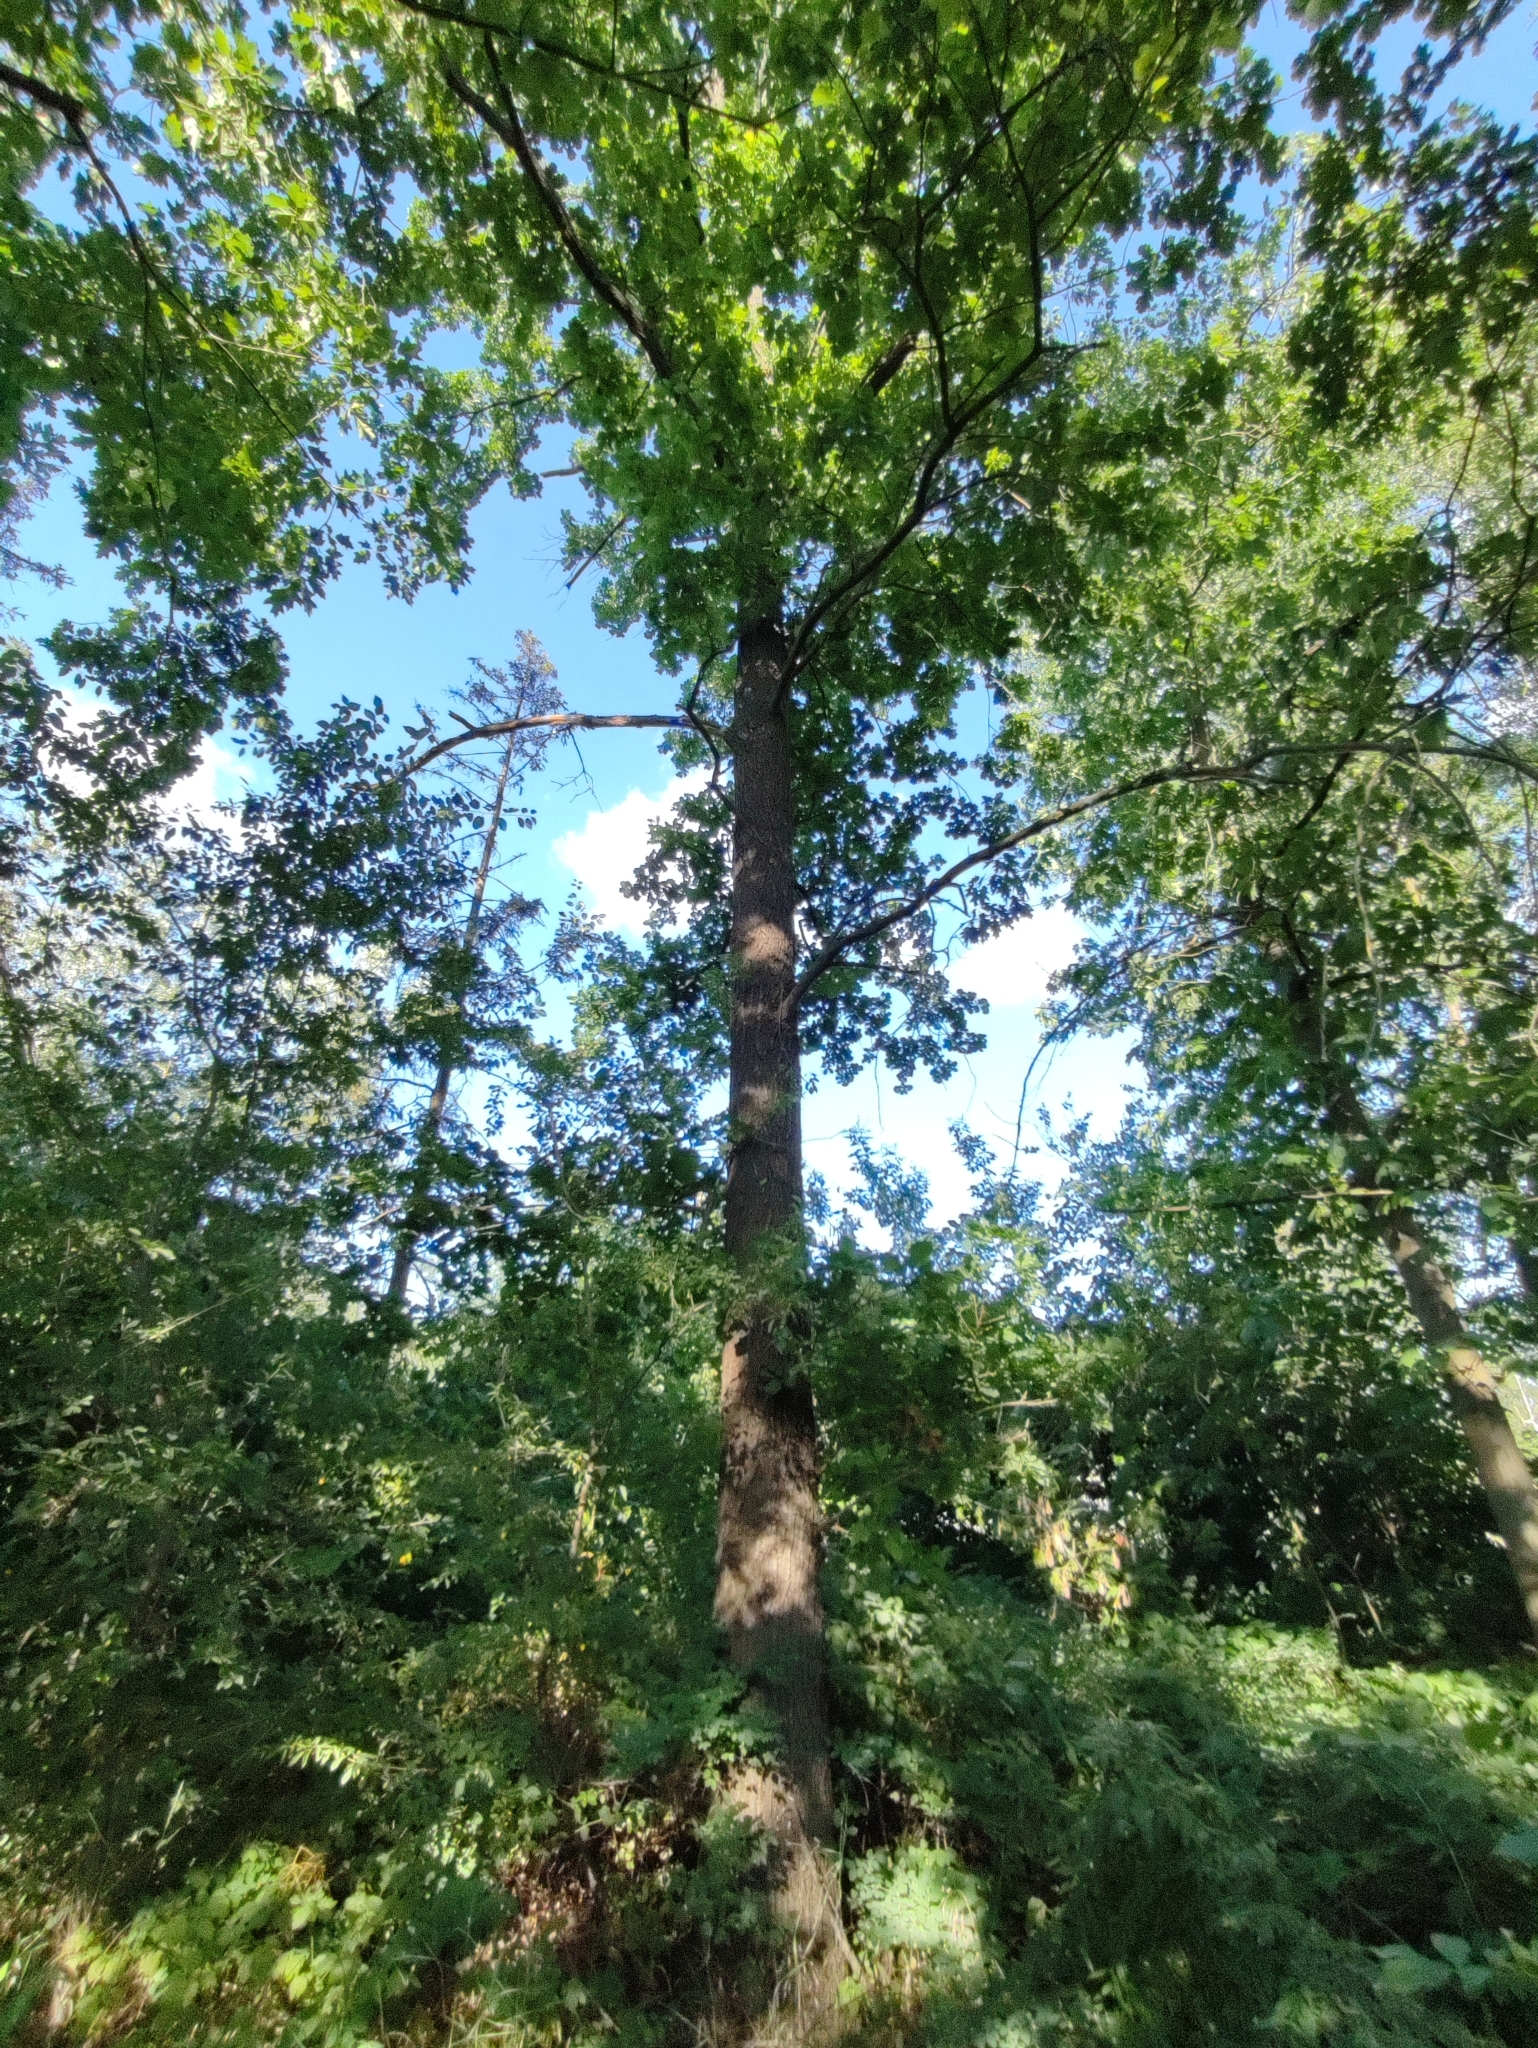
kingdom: Plantae
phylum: Tracheophyta
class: Magnoliopsida
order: Fagales
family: Fagaceae
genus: Quercus
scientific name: Quercus robur
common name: Pedunculate oak
